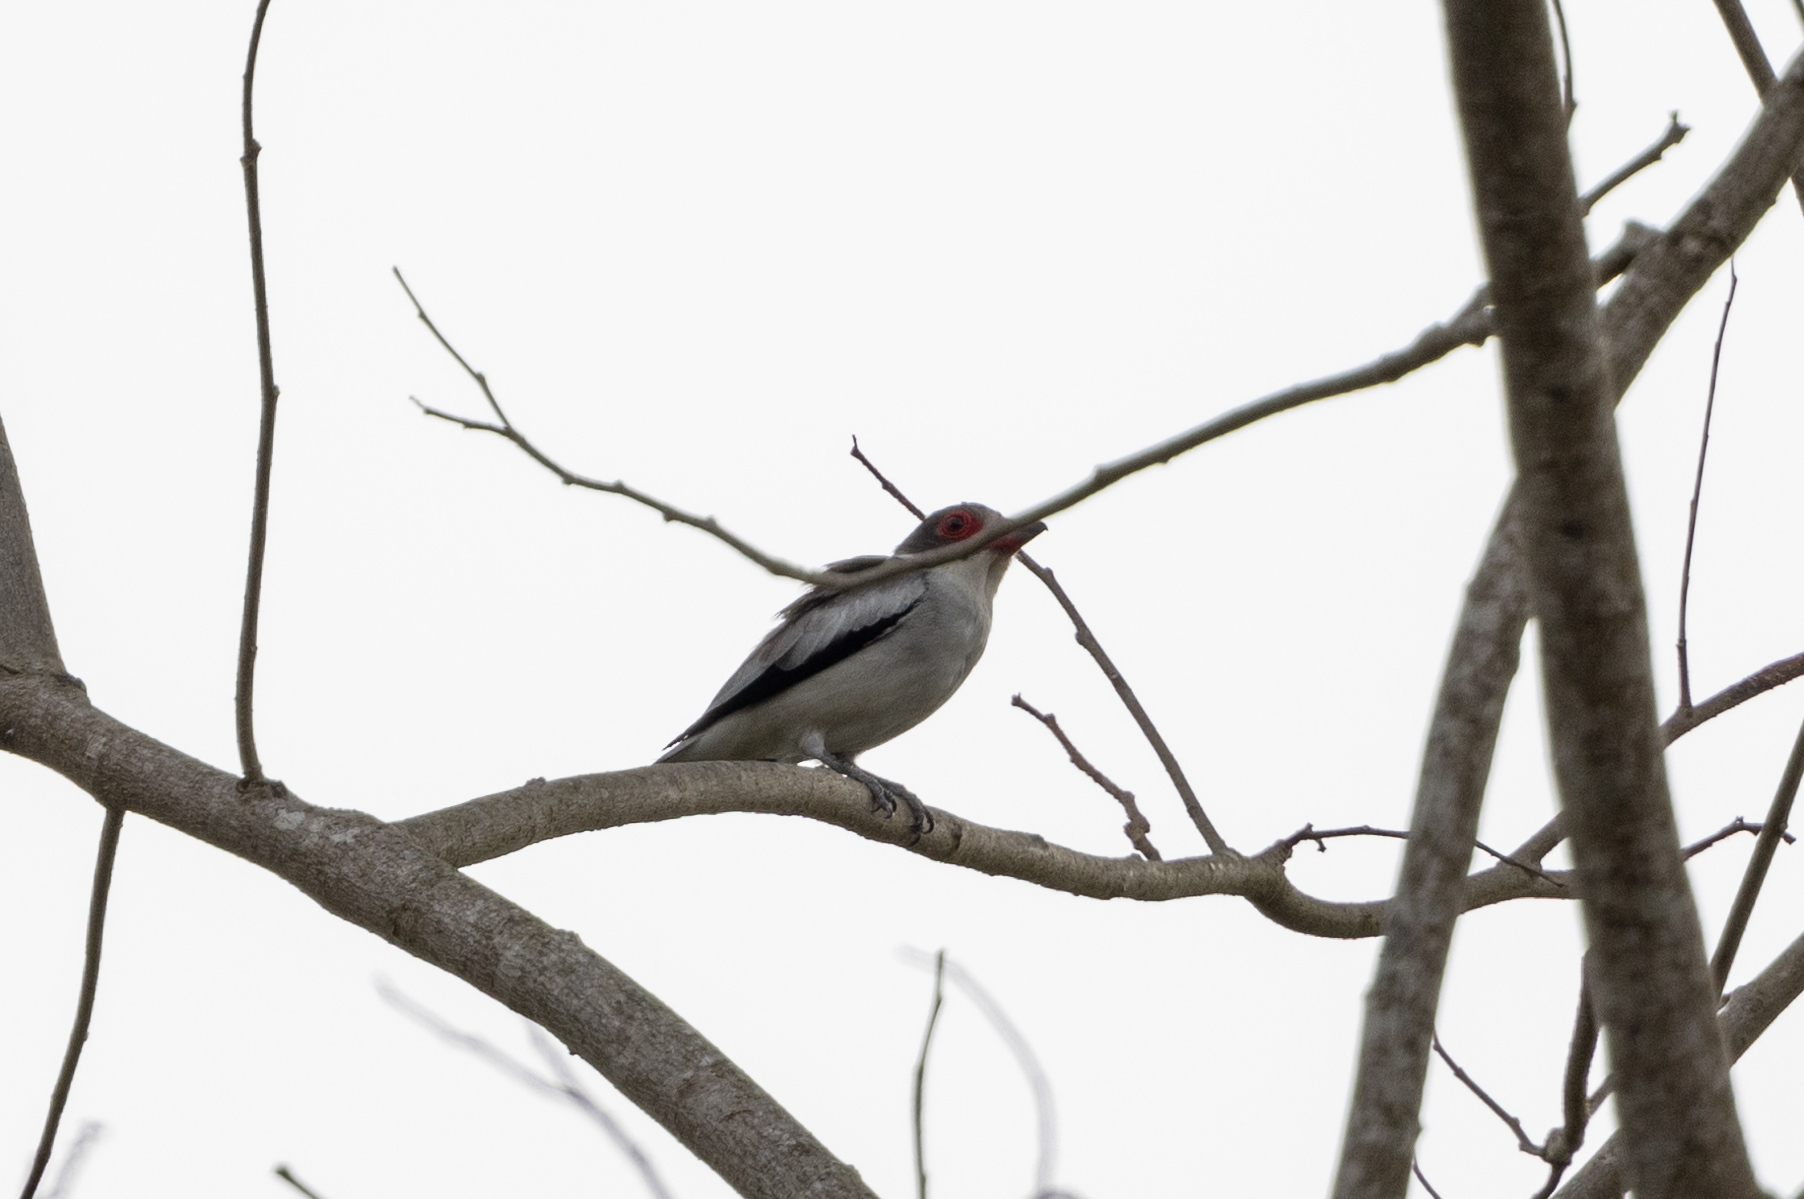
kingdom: Animalia
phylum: Chordata
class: Aves
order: Passeriformes
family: Cotingidae
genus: Tityra
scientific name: Tityra semifasciata
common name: Masked tityra
